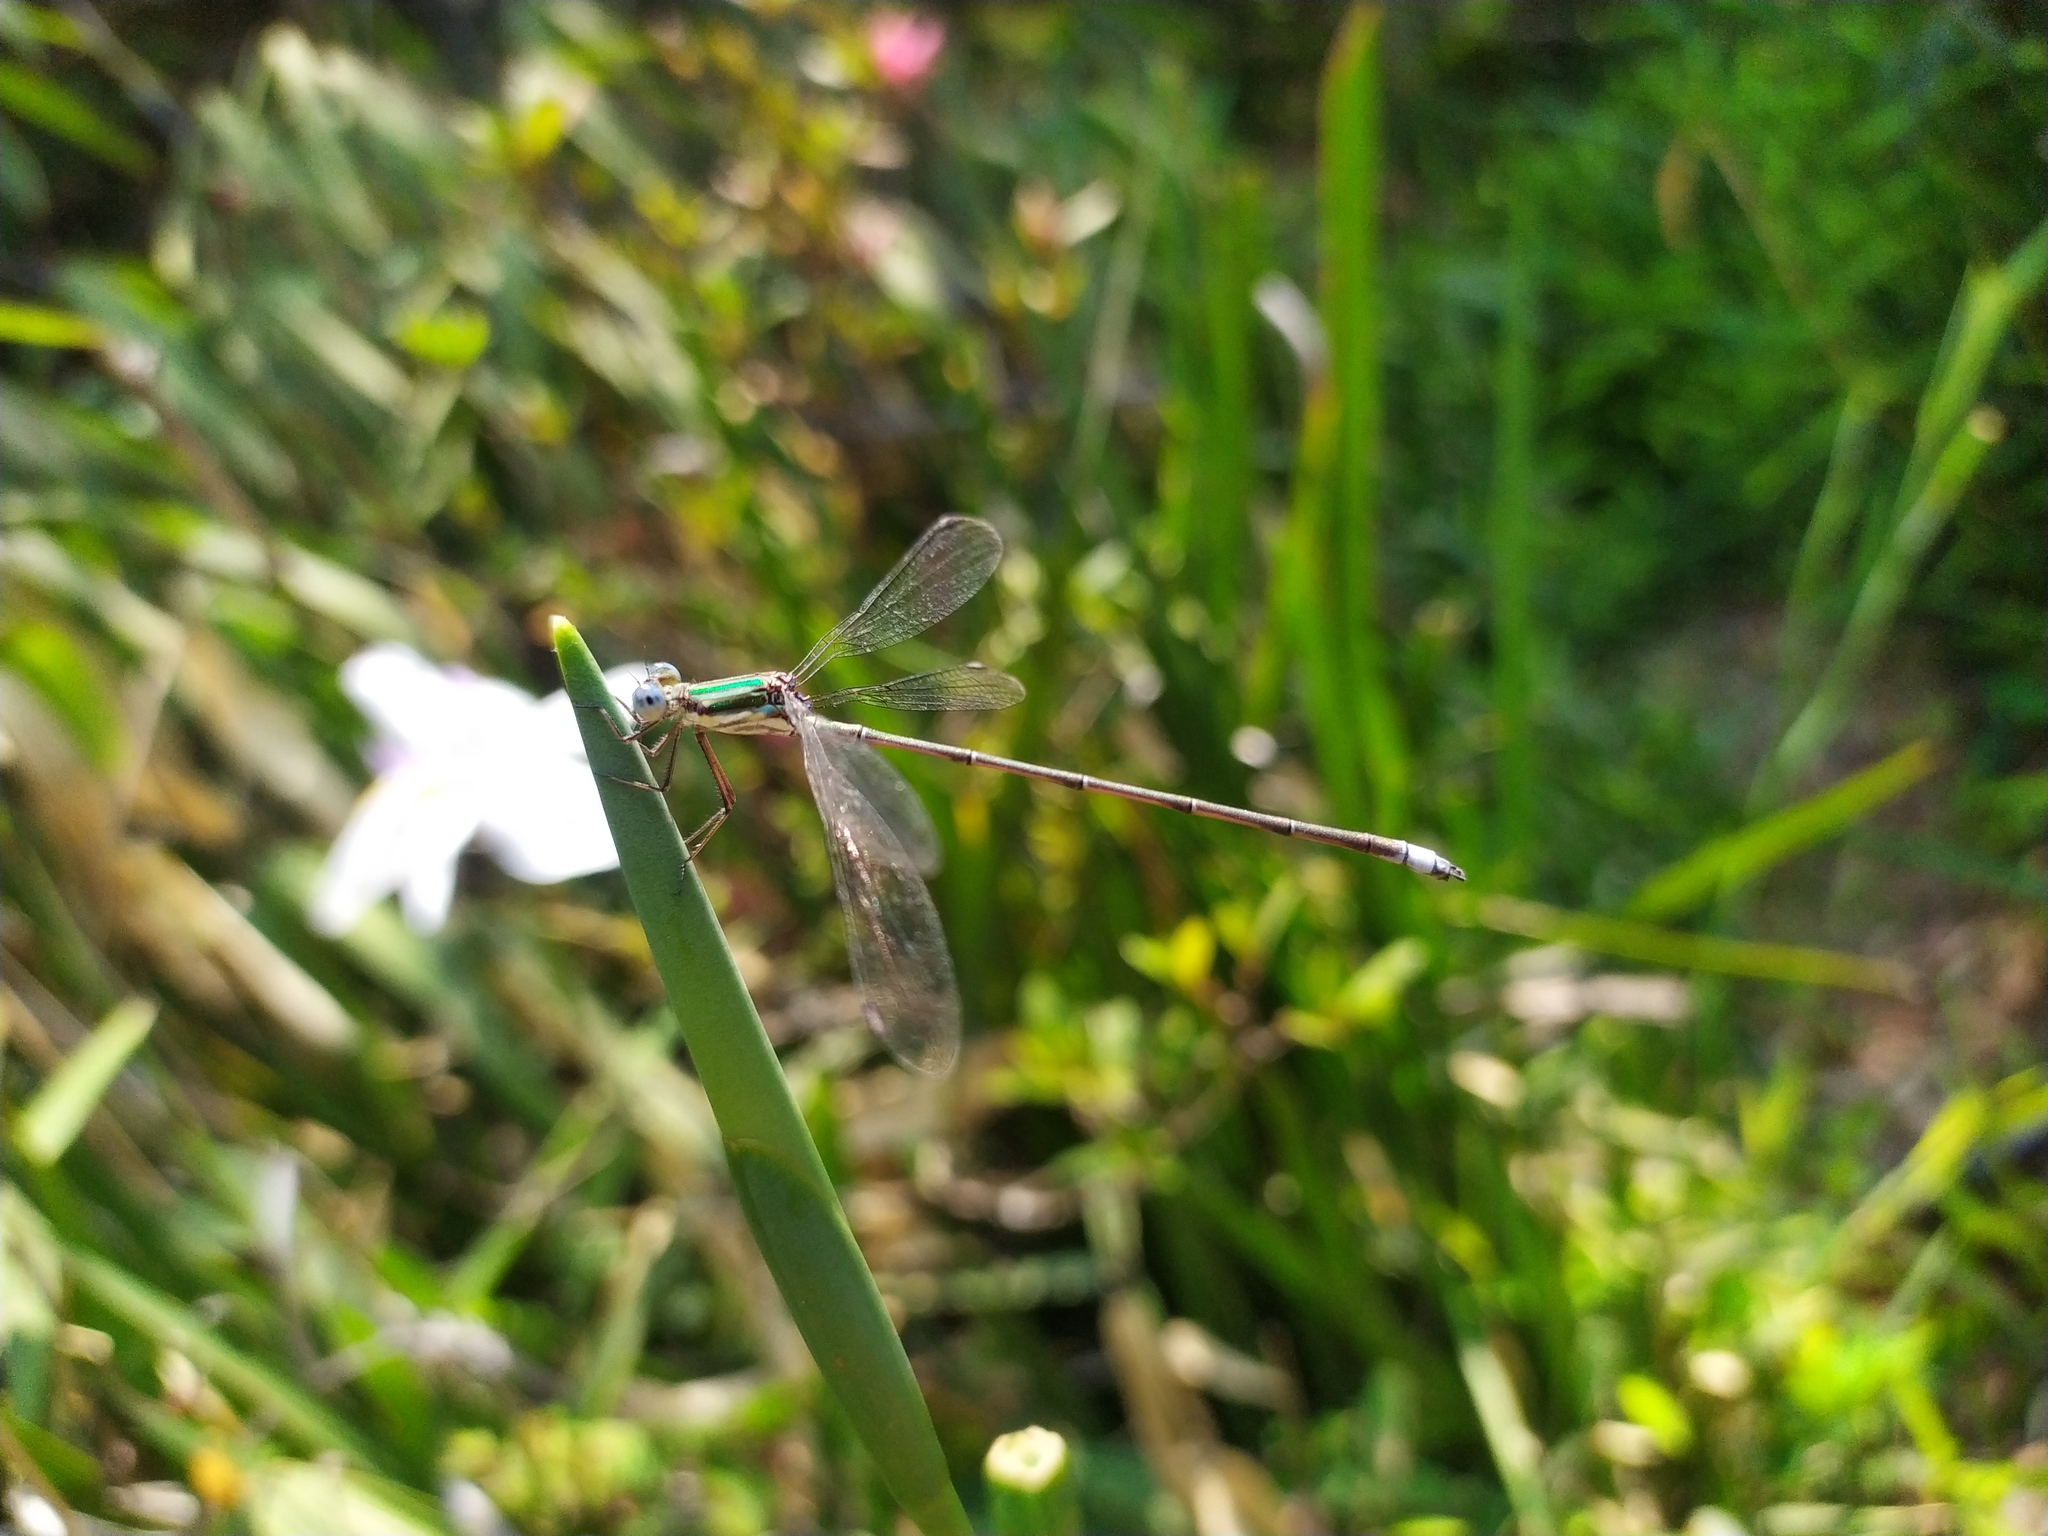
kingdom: Animalia
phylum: Arthropoda
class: Insecta
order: Odonata
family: Lestidae
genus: Lestes
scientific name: Lestes virgatus
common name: Smoky spreadwing
